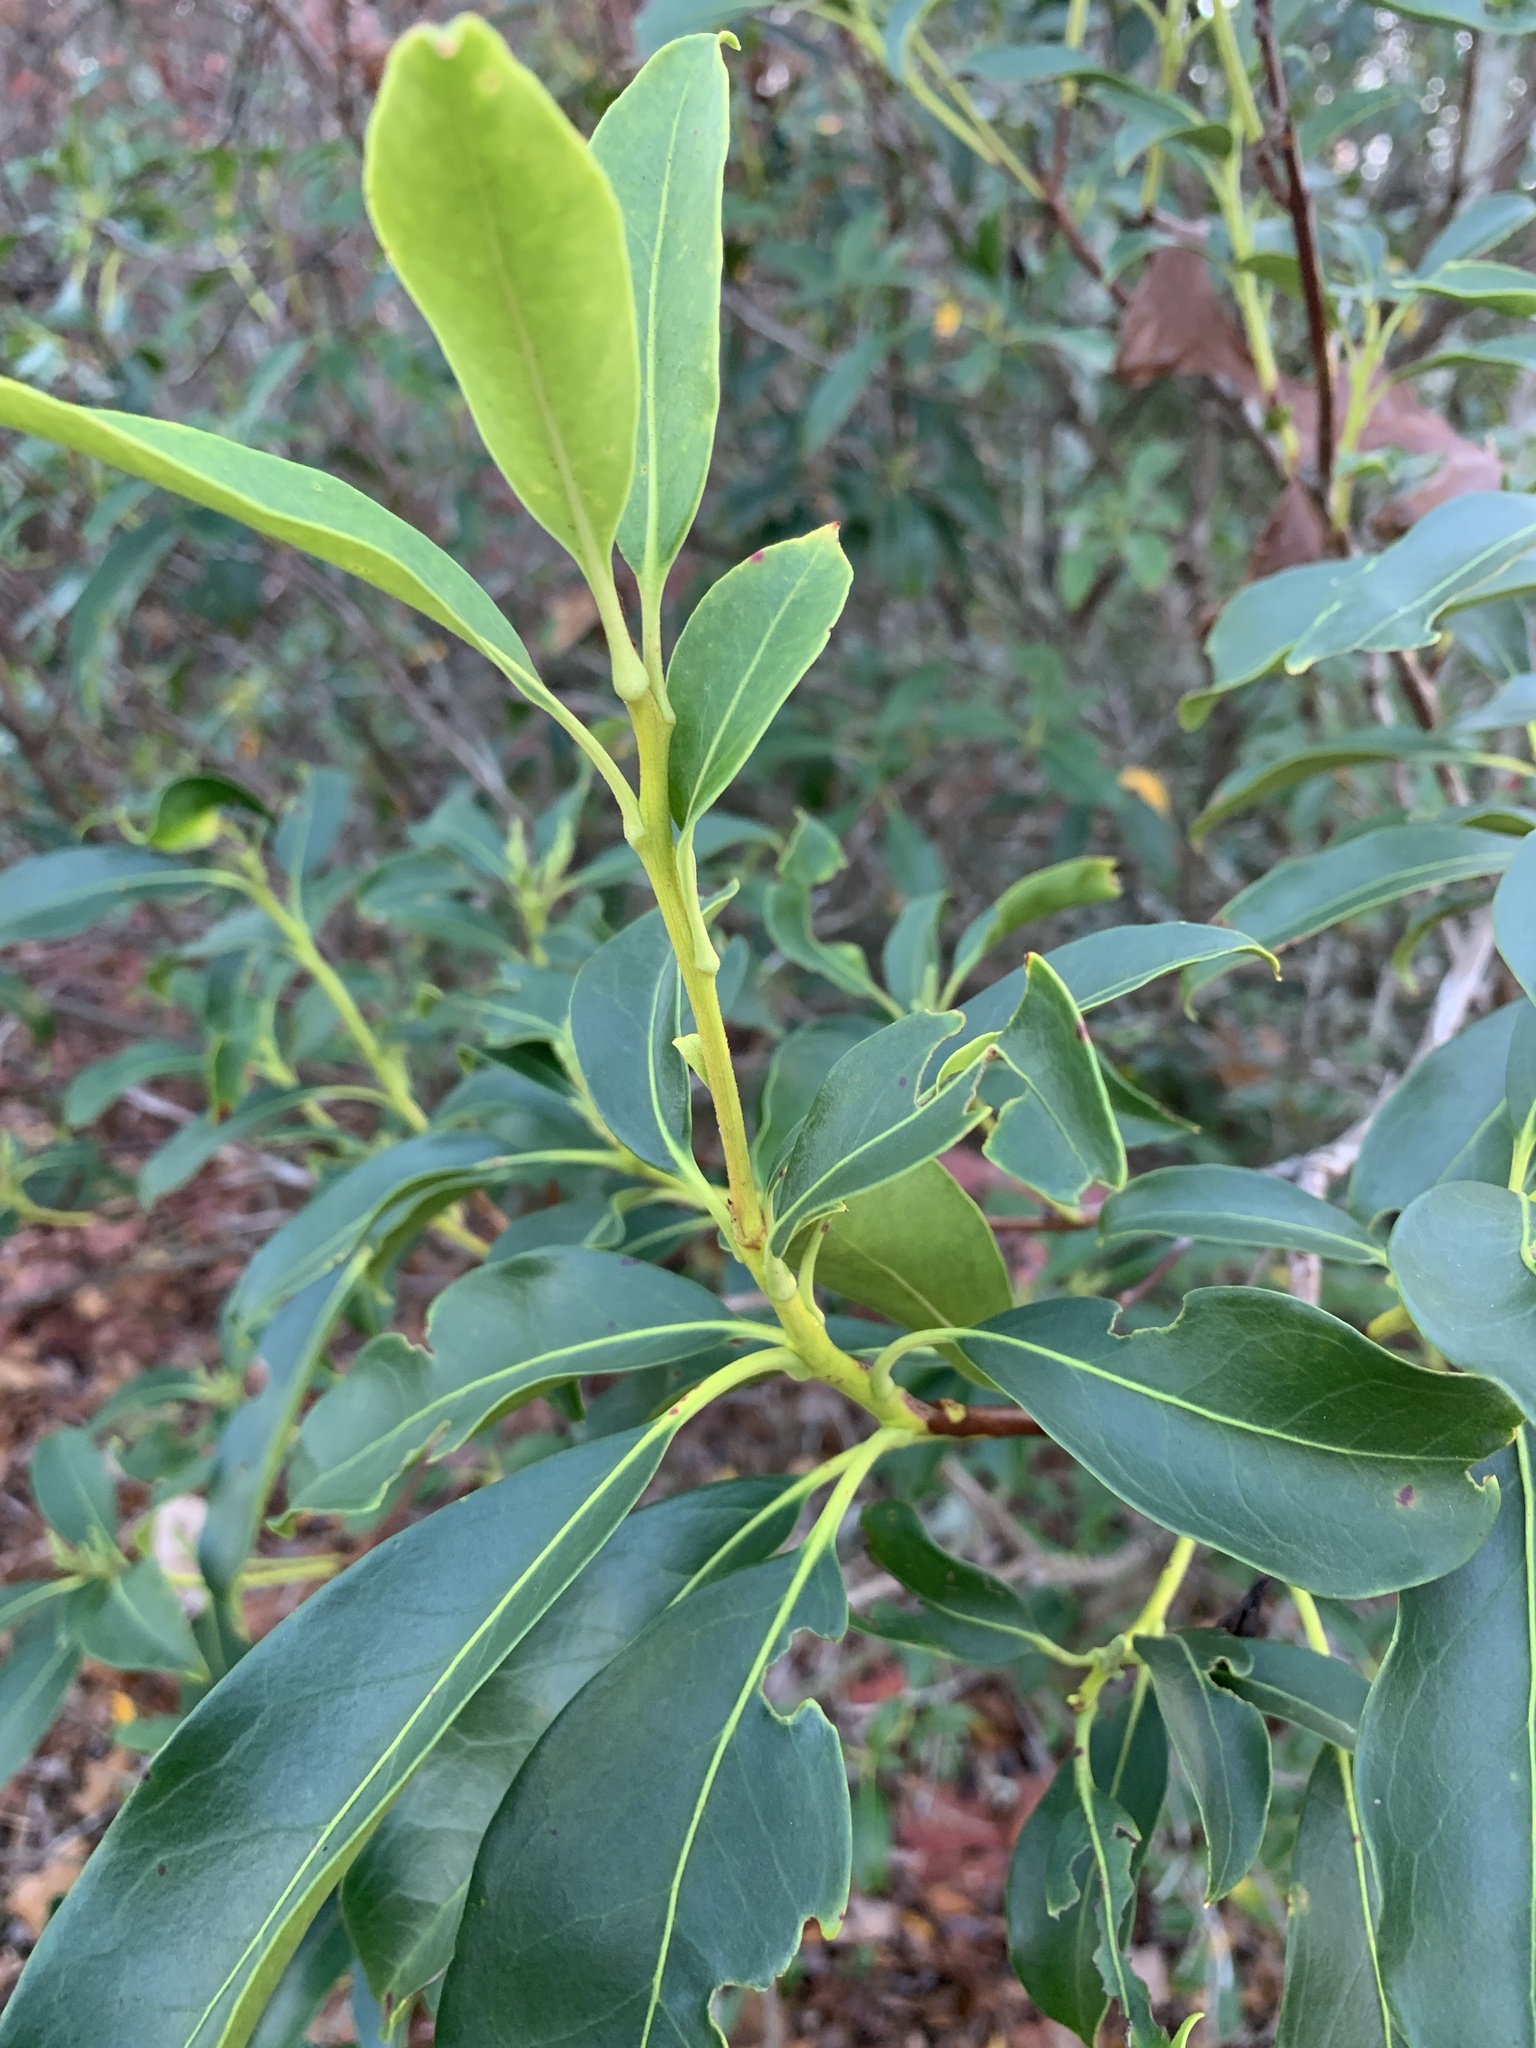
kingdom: Plantae
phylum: Tracheophyta
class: Magnoliopsida
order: Ericales
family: Ericaceae
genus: Kalmia
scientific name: Kalmia latifolia
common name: Mountain-laurel
